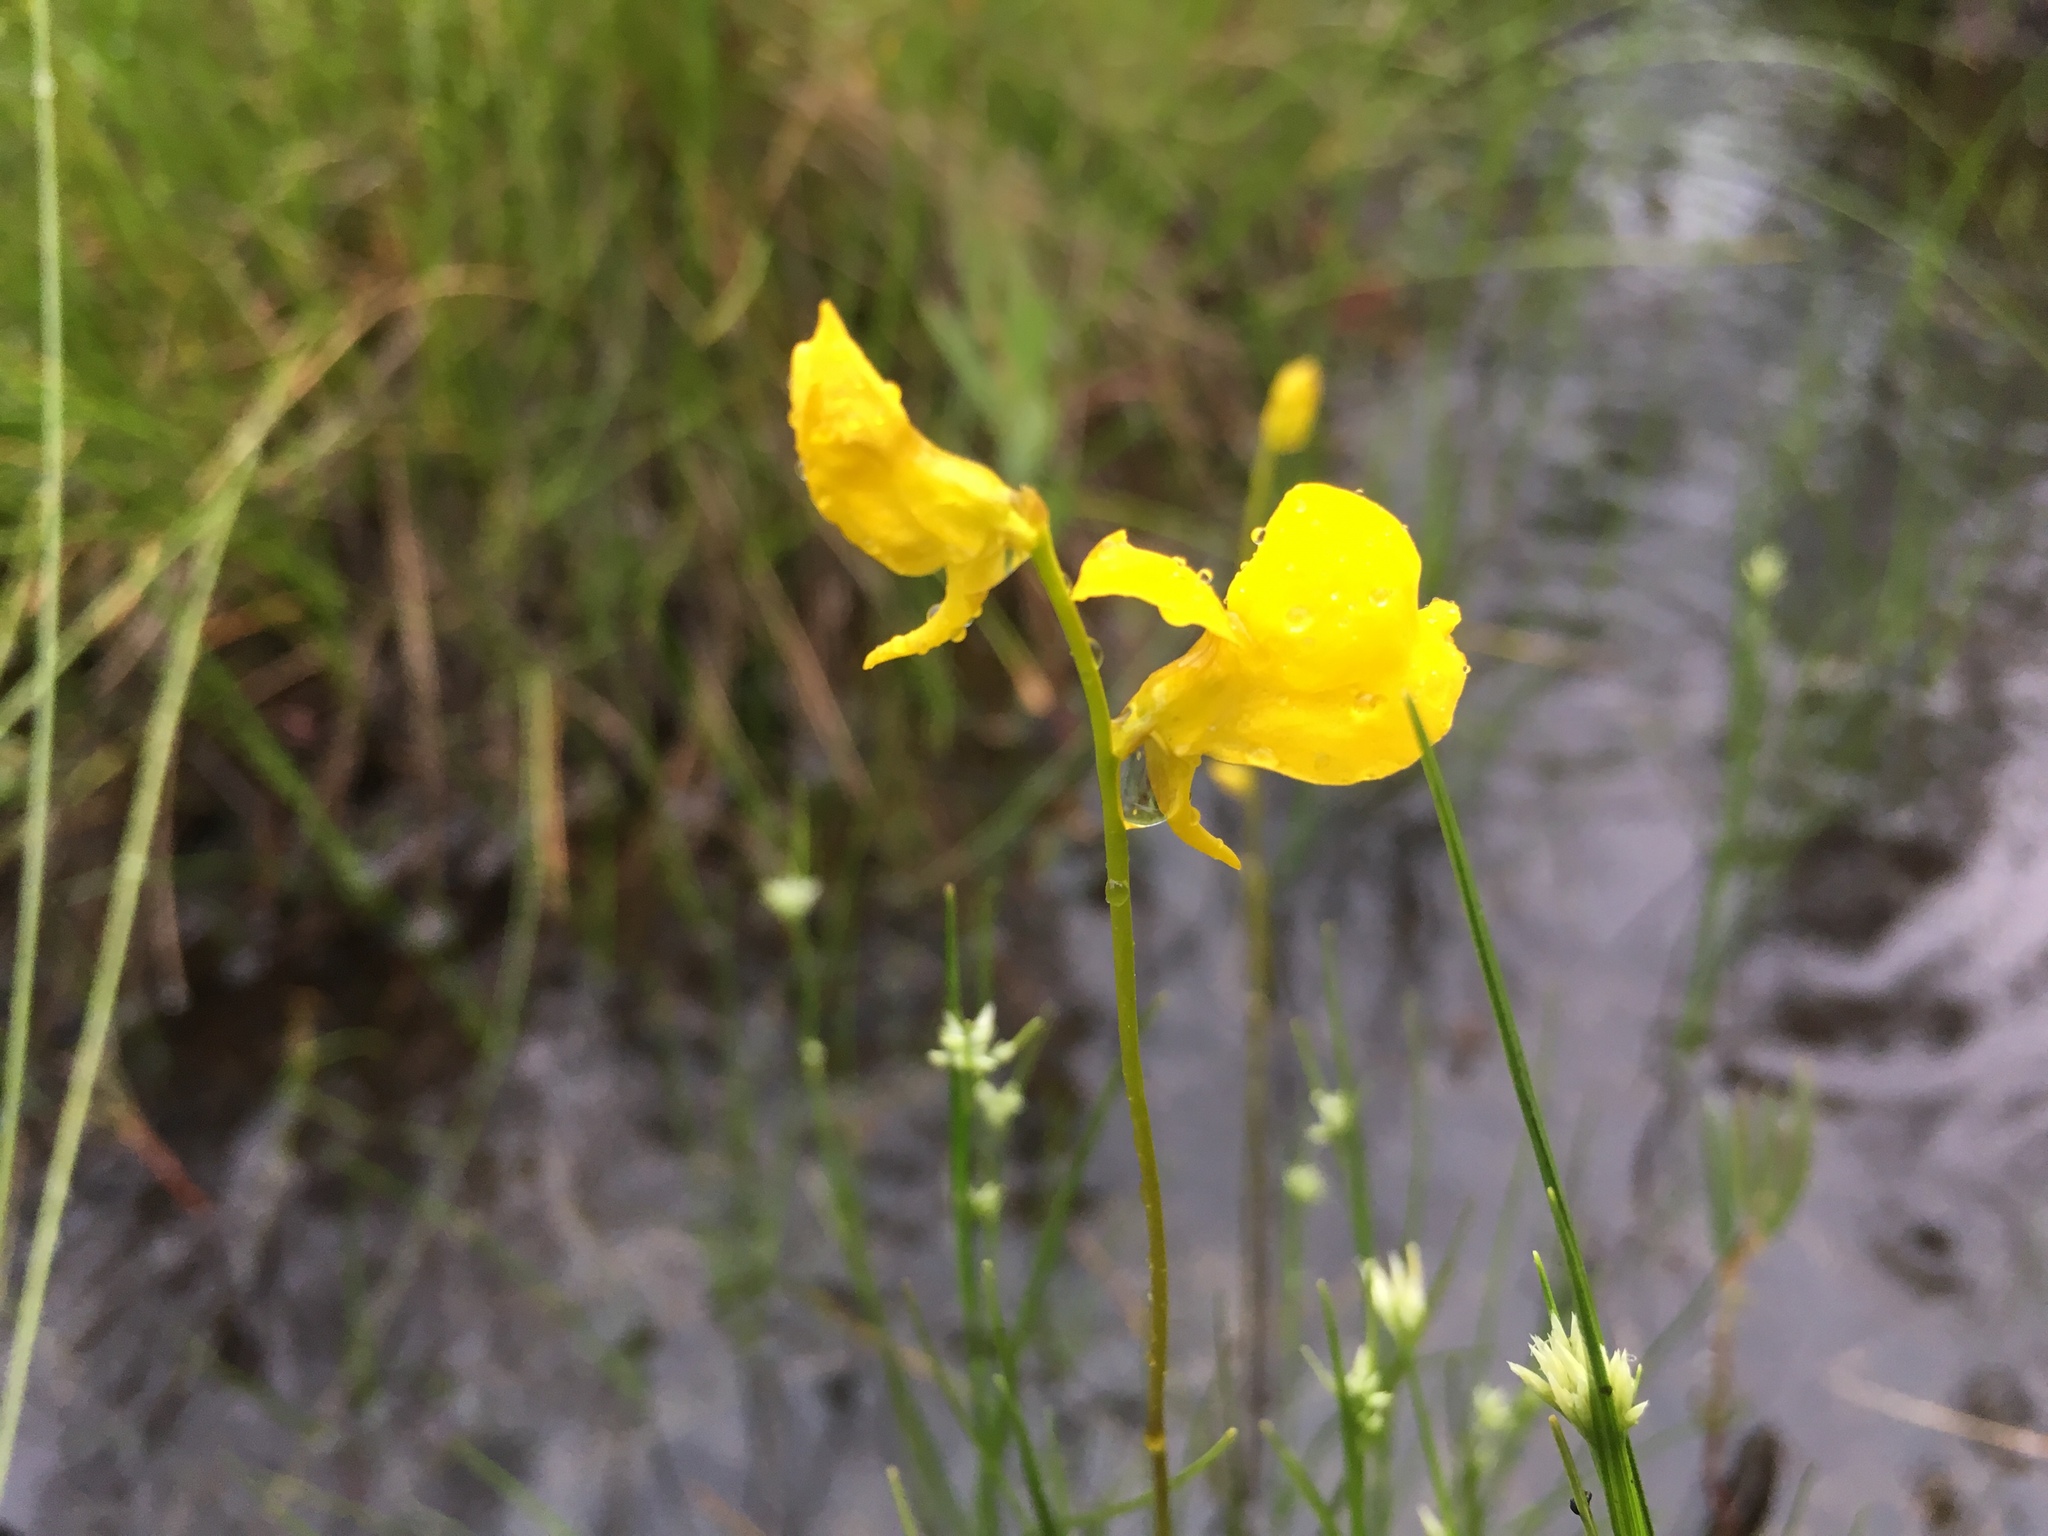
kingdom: Plantae
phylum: Tracheophyta
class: Magnoliopsida
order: Lamiales
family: Lentibulariaceae
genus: Utricularia
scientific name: Utricularia cornuta
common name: Horned bladderwort
